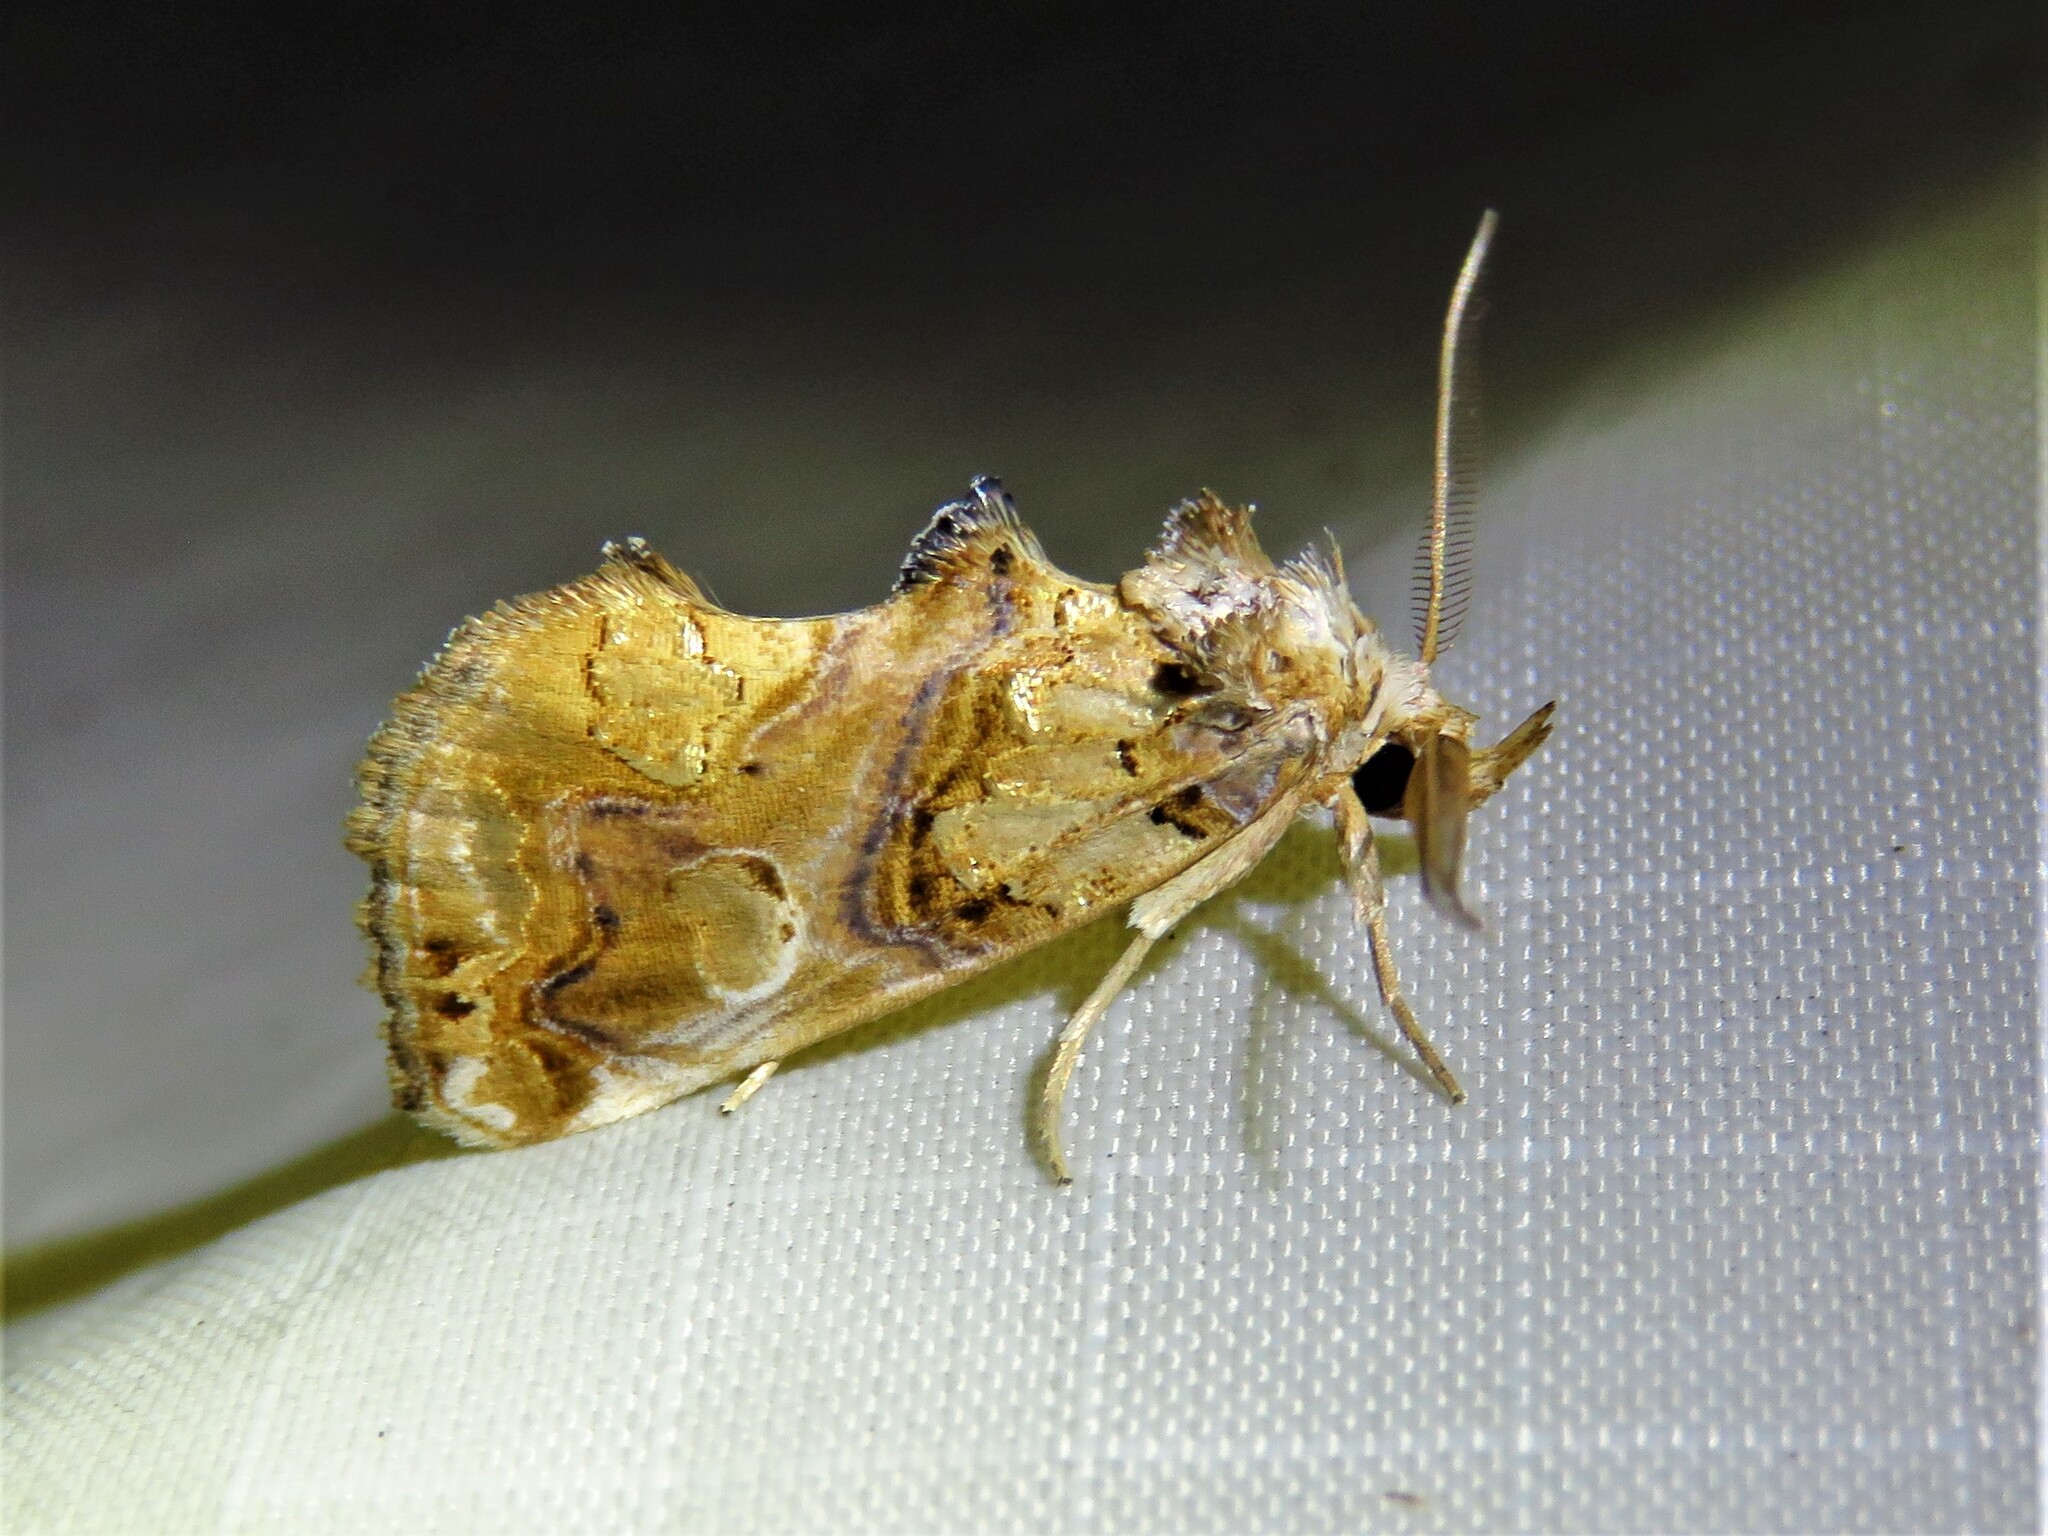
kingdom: Animalia
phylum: Arthropoda
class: Insecta
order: Lepidoptera
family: Erebidae
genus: Plusiodonta
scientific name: Plusiodonta compressipalpis
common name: Moonseed moth
